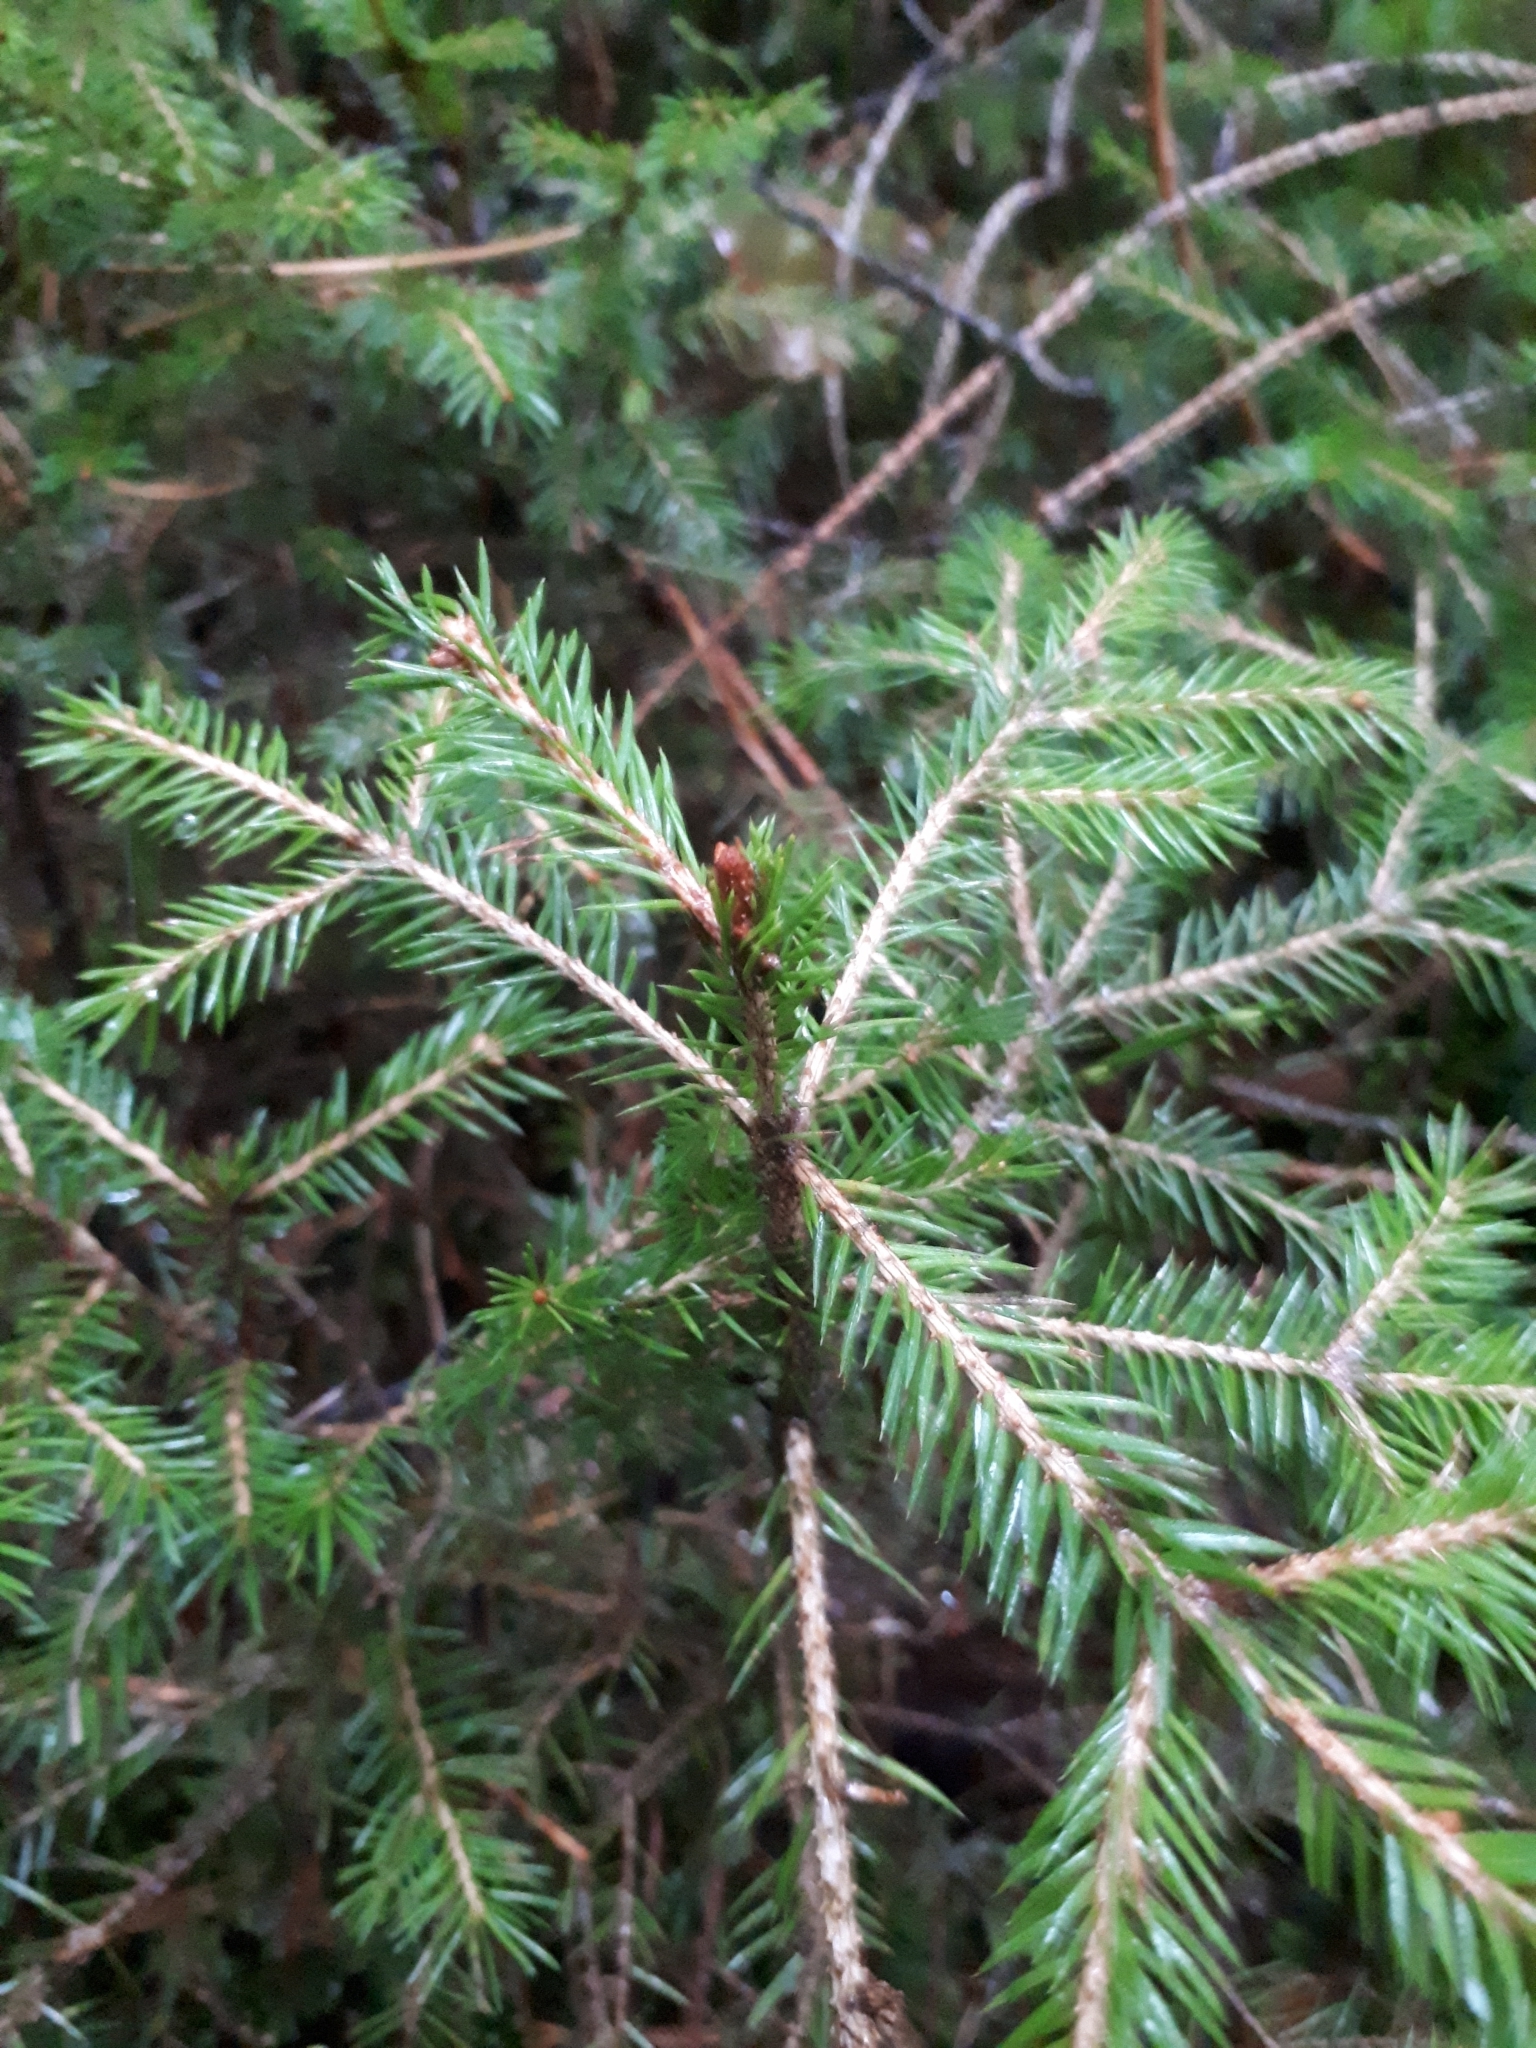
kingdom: Plantae
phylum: Tracheophyta
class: Pinopsida
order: Pinales
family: Pinaceae
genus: Picea
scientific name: Picea abies
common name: Norway spruce
